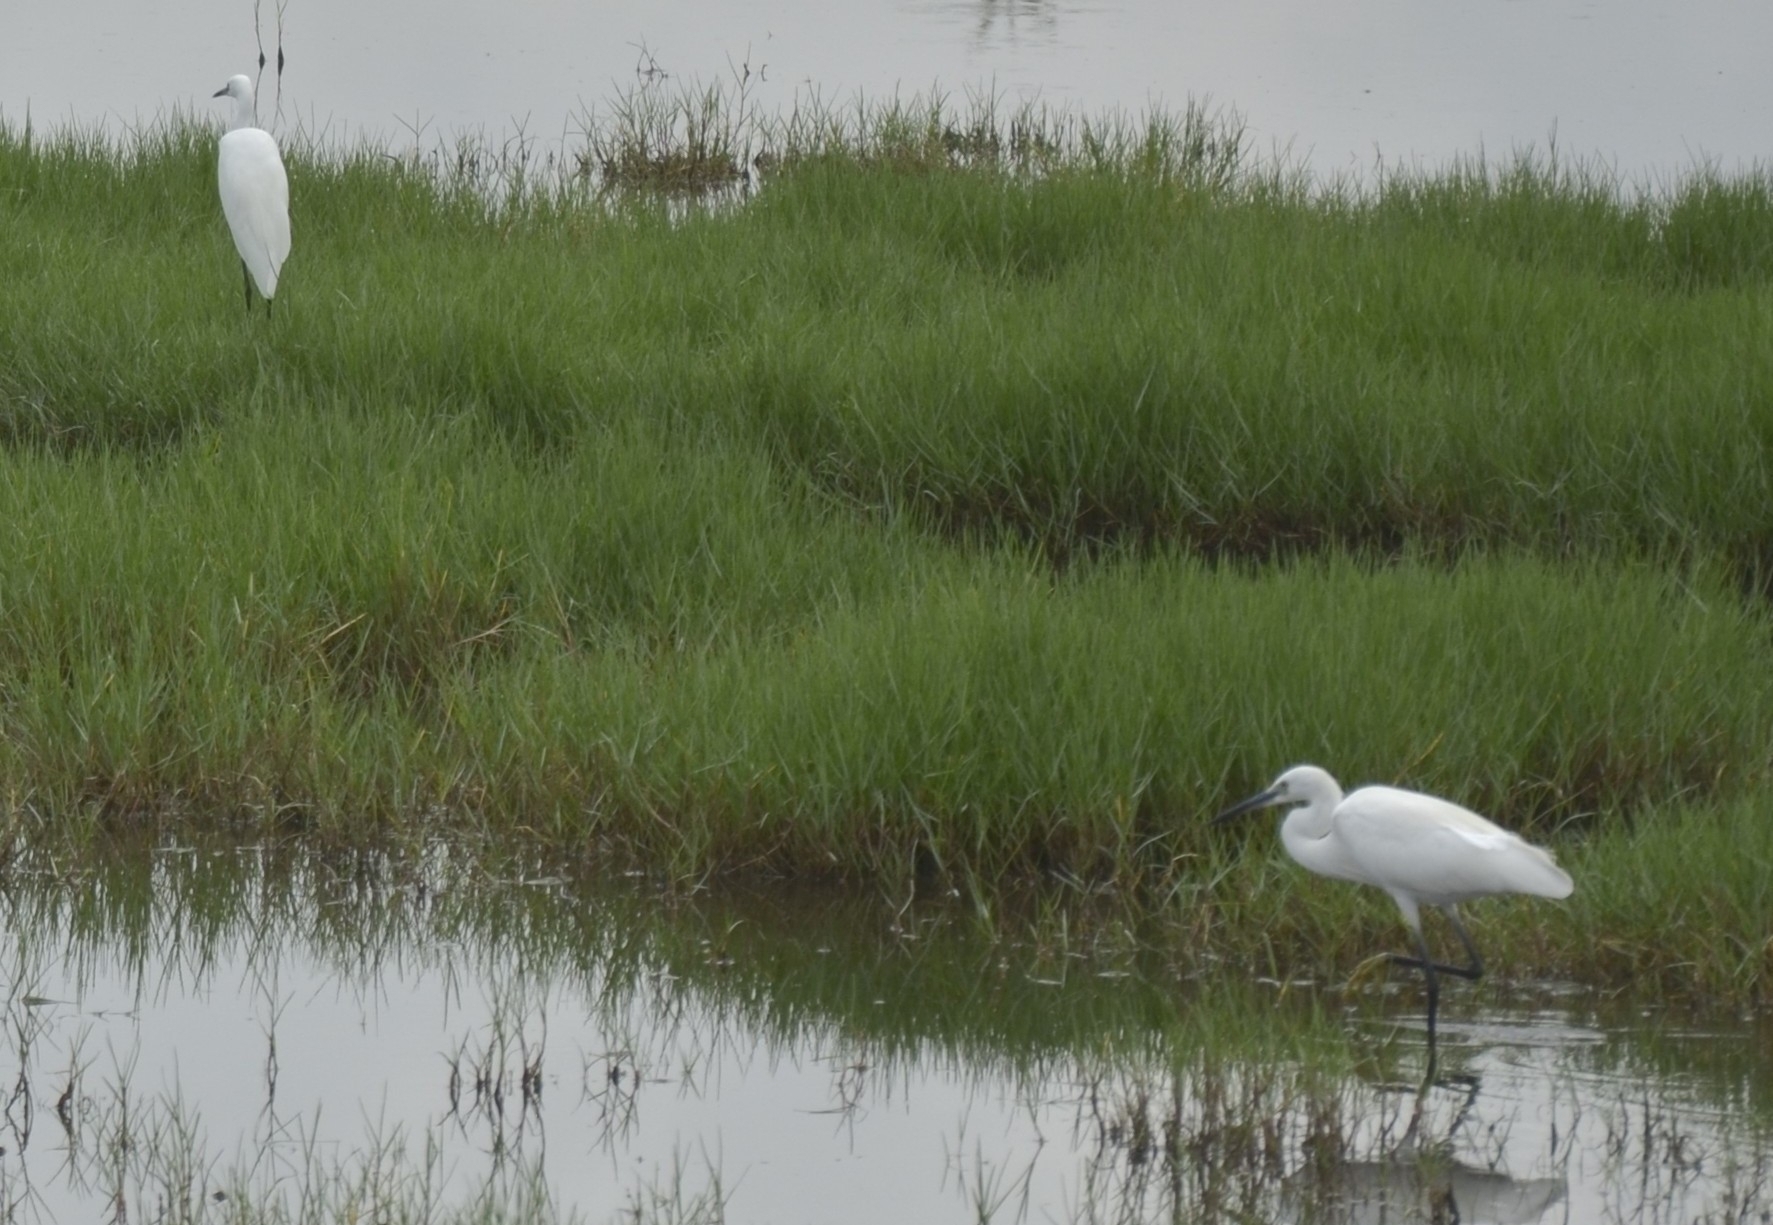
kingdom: Animalia
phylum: Chordata
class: Aves
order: Pelecaniformes
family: Ardeidae
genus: Egretta
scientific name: Egretta garzetta
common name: Little egret
